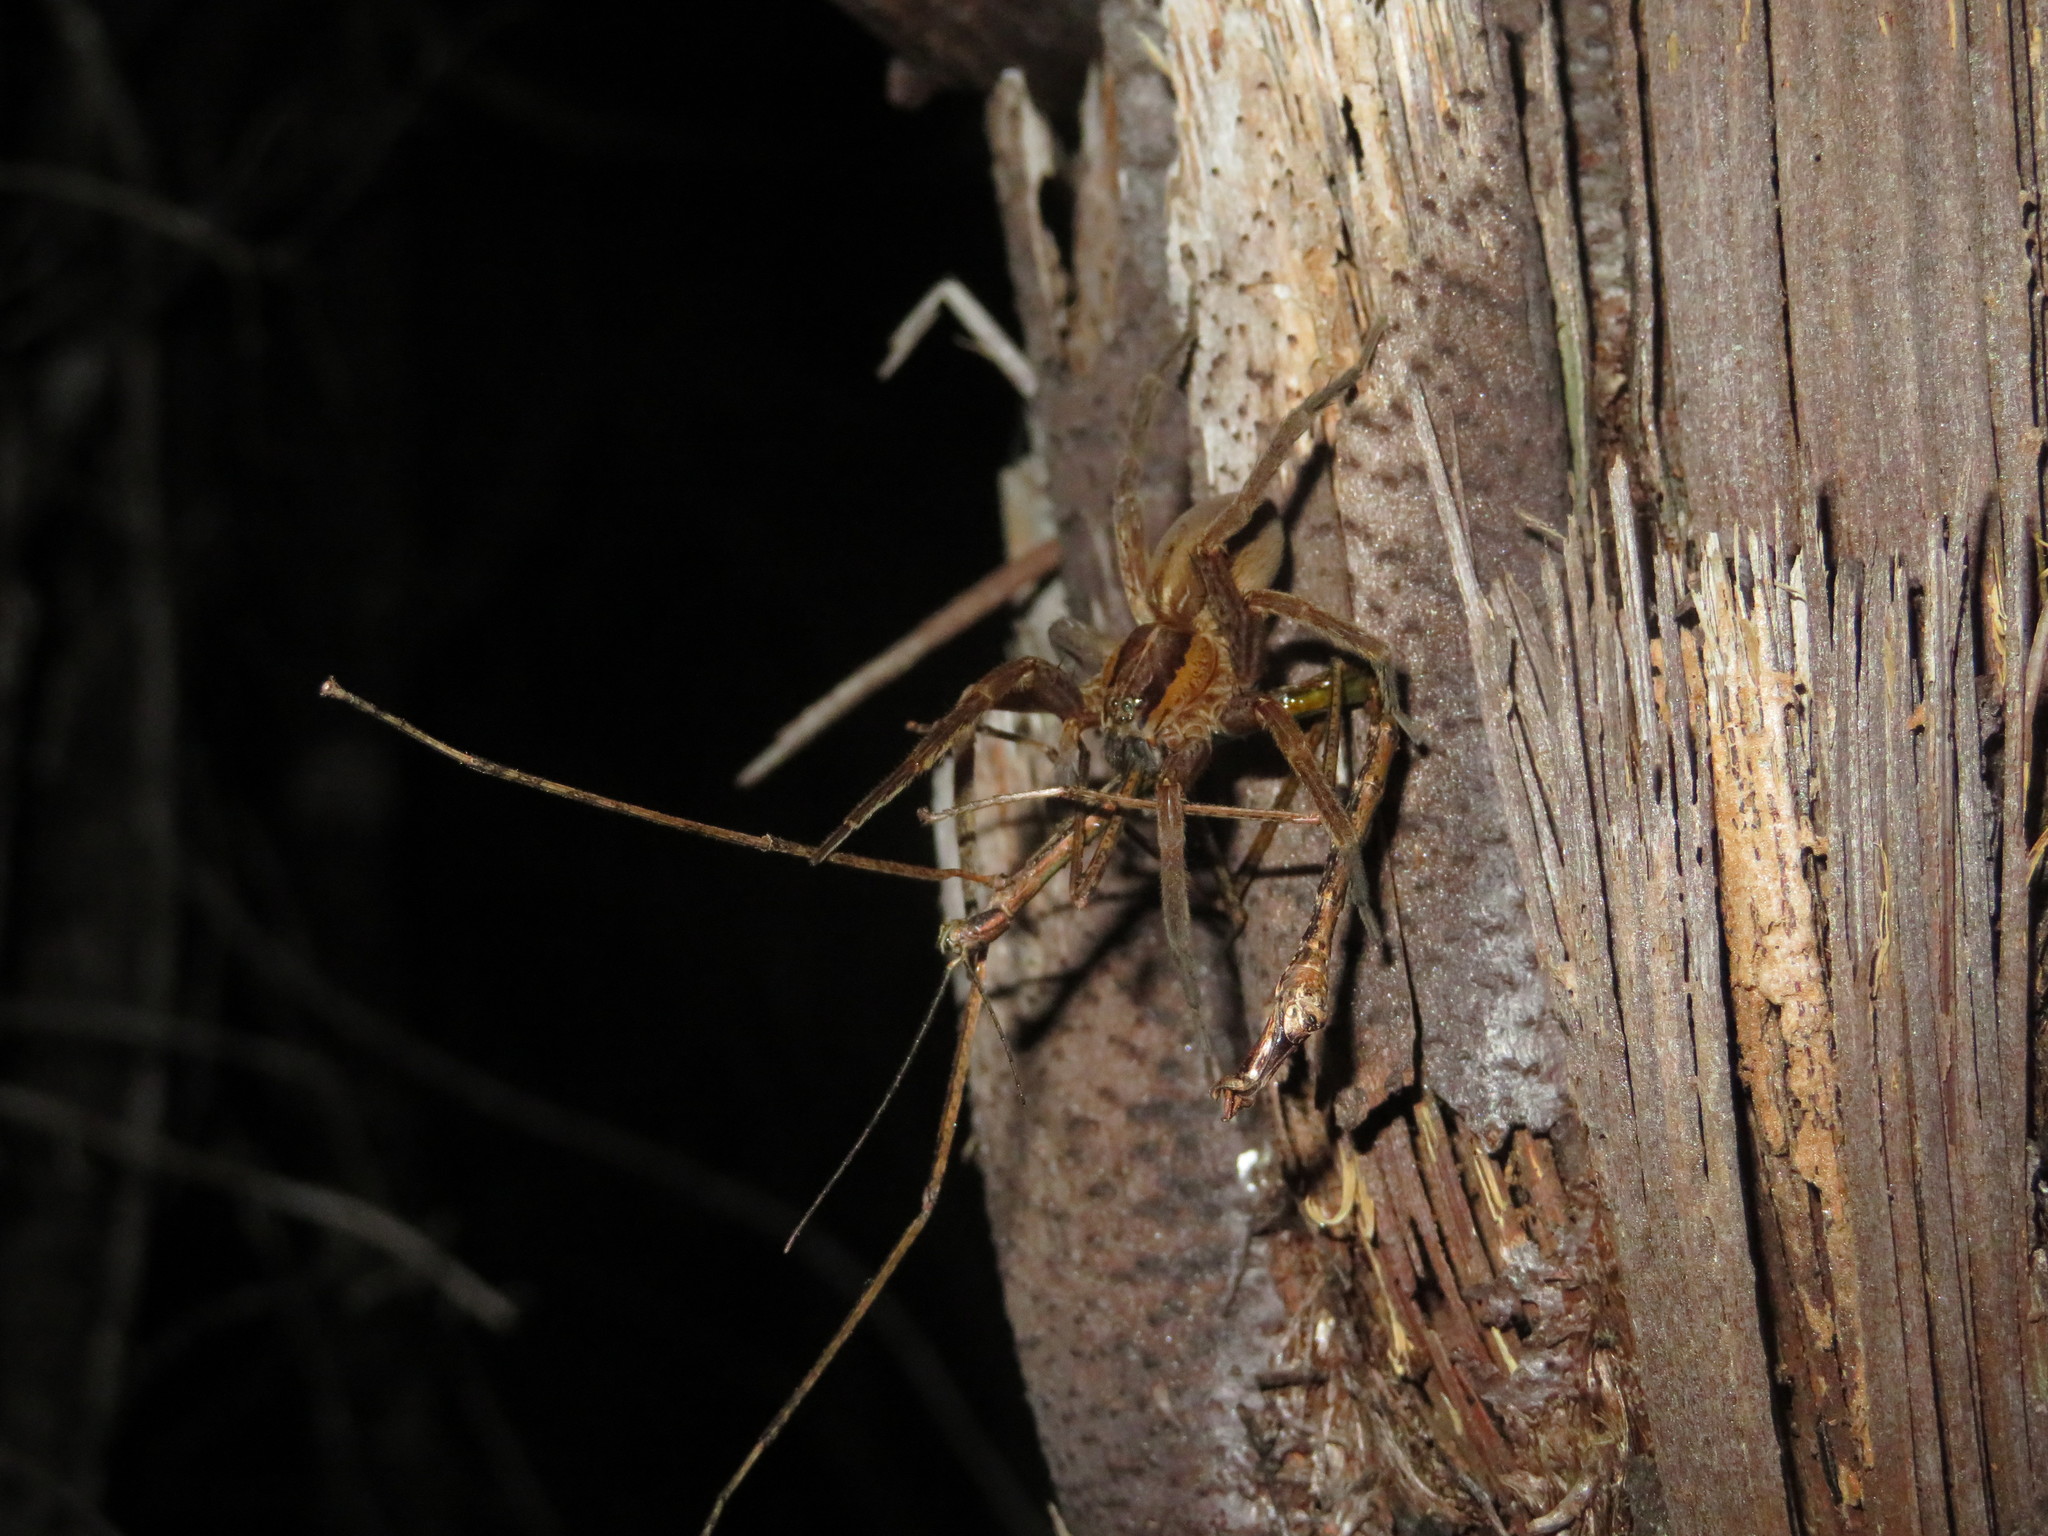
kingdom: Animalia
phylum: Arthropoda
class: Arachnida
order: Araneae
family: Pisauridae
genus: Dolomedes
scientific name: Dolomedes minor
